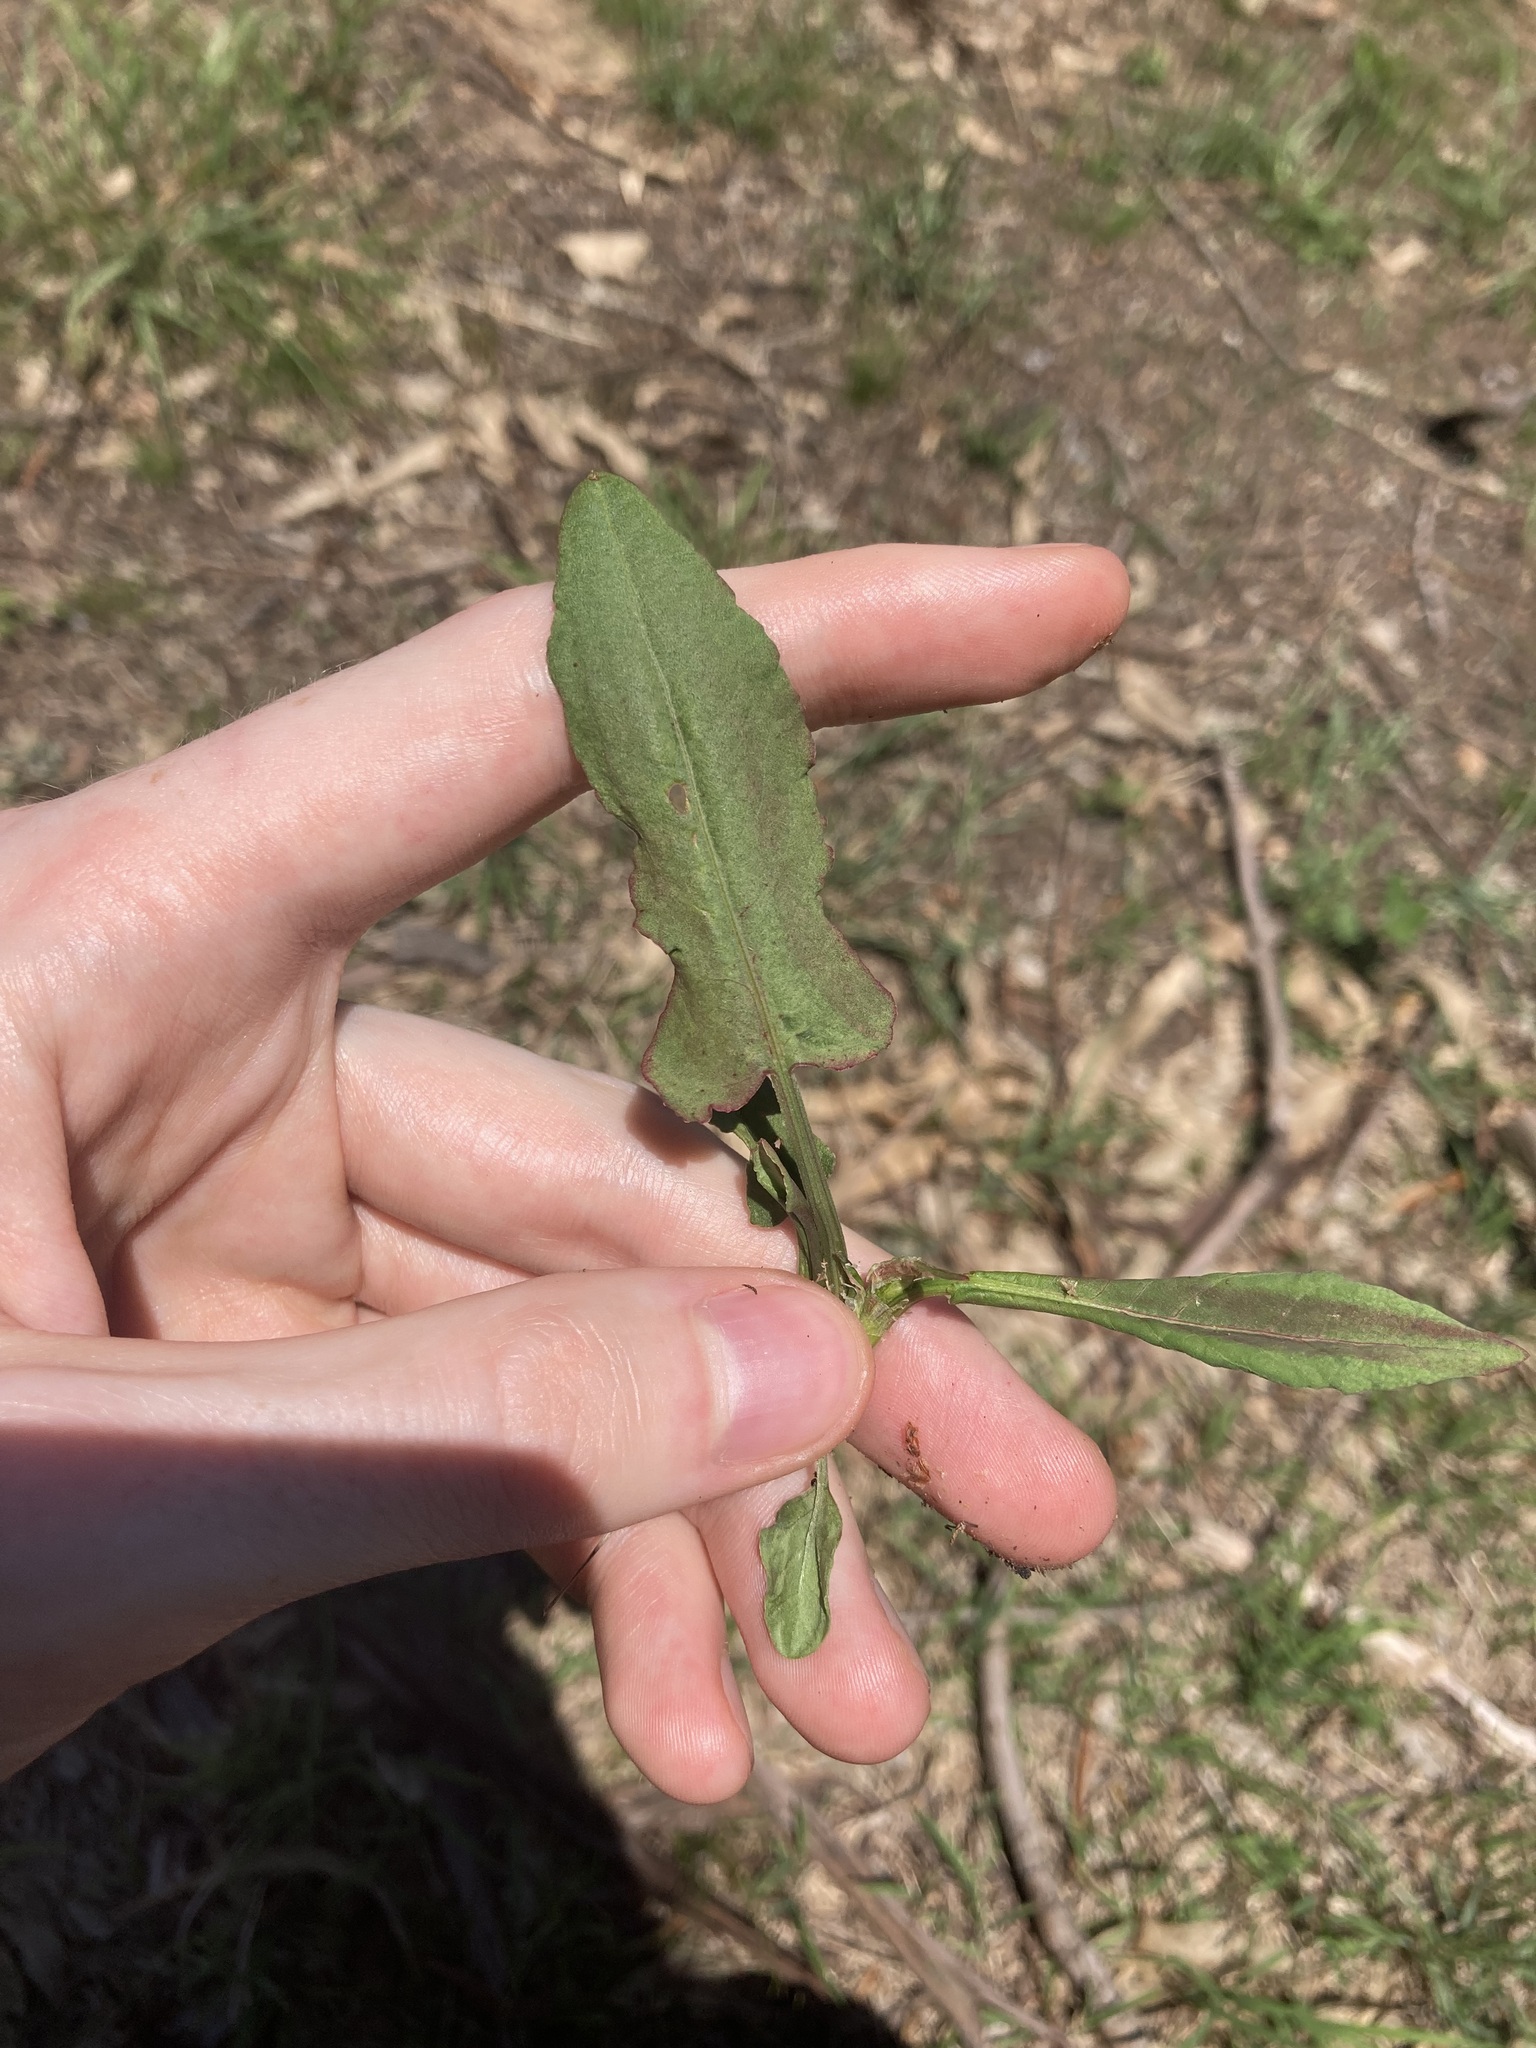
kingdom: Plantae
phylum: Tracheophyta
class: Magnoliopsida
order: Caryophyllales
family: Polygonaceae
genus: Rumex
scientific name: Rumex brownii
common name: Hooked dock
